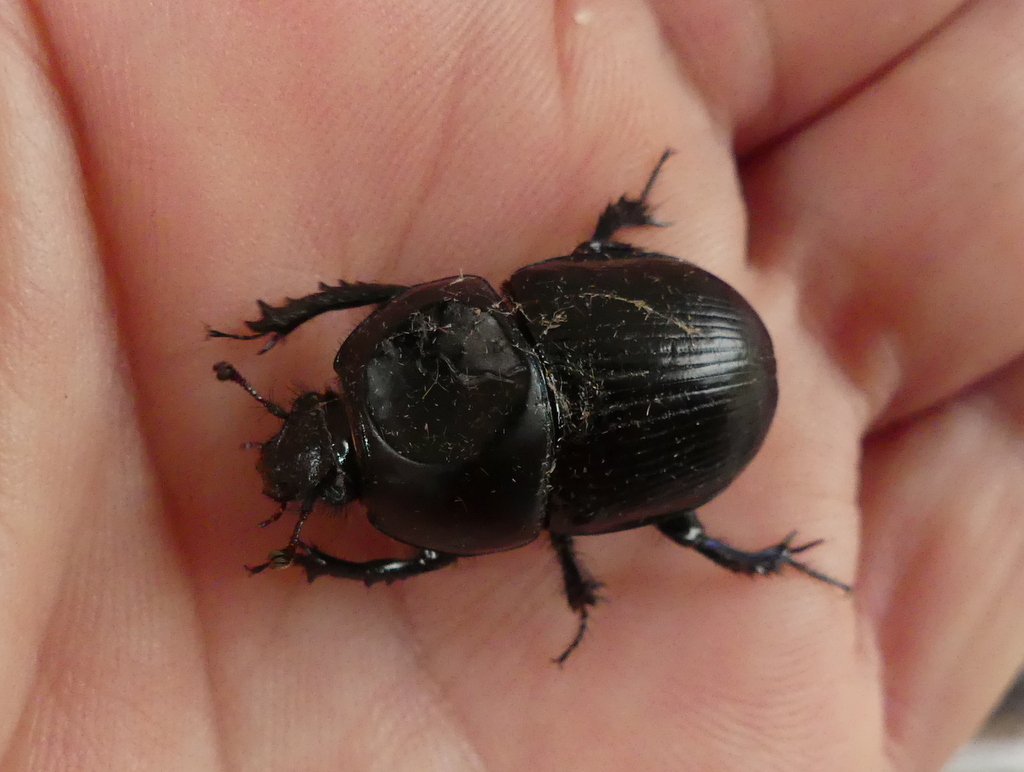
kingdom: Animalia
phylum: Arthropoda
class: Insecta
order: Coleoptera
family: Geotrupidae
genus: Geotrupes
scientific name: Geotrupes stercorarius
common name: Earth-boring dung beetle
